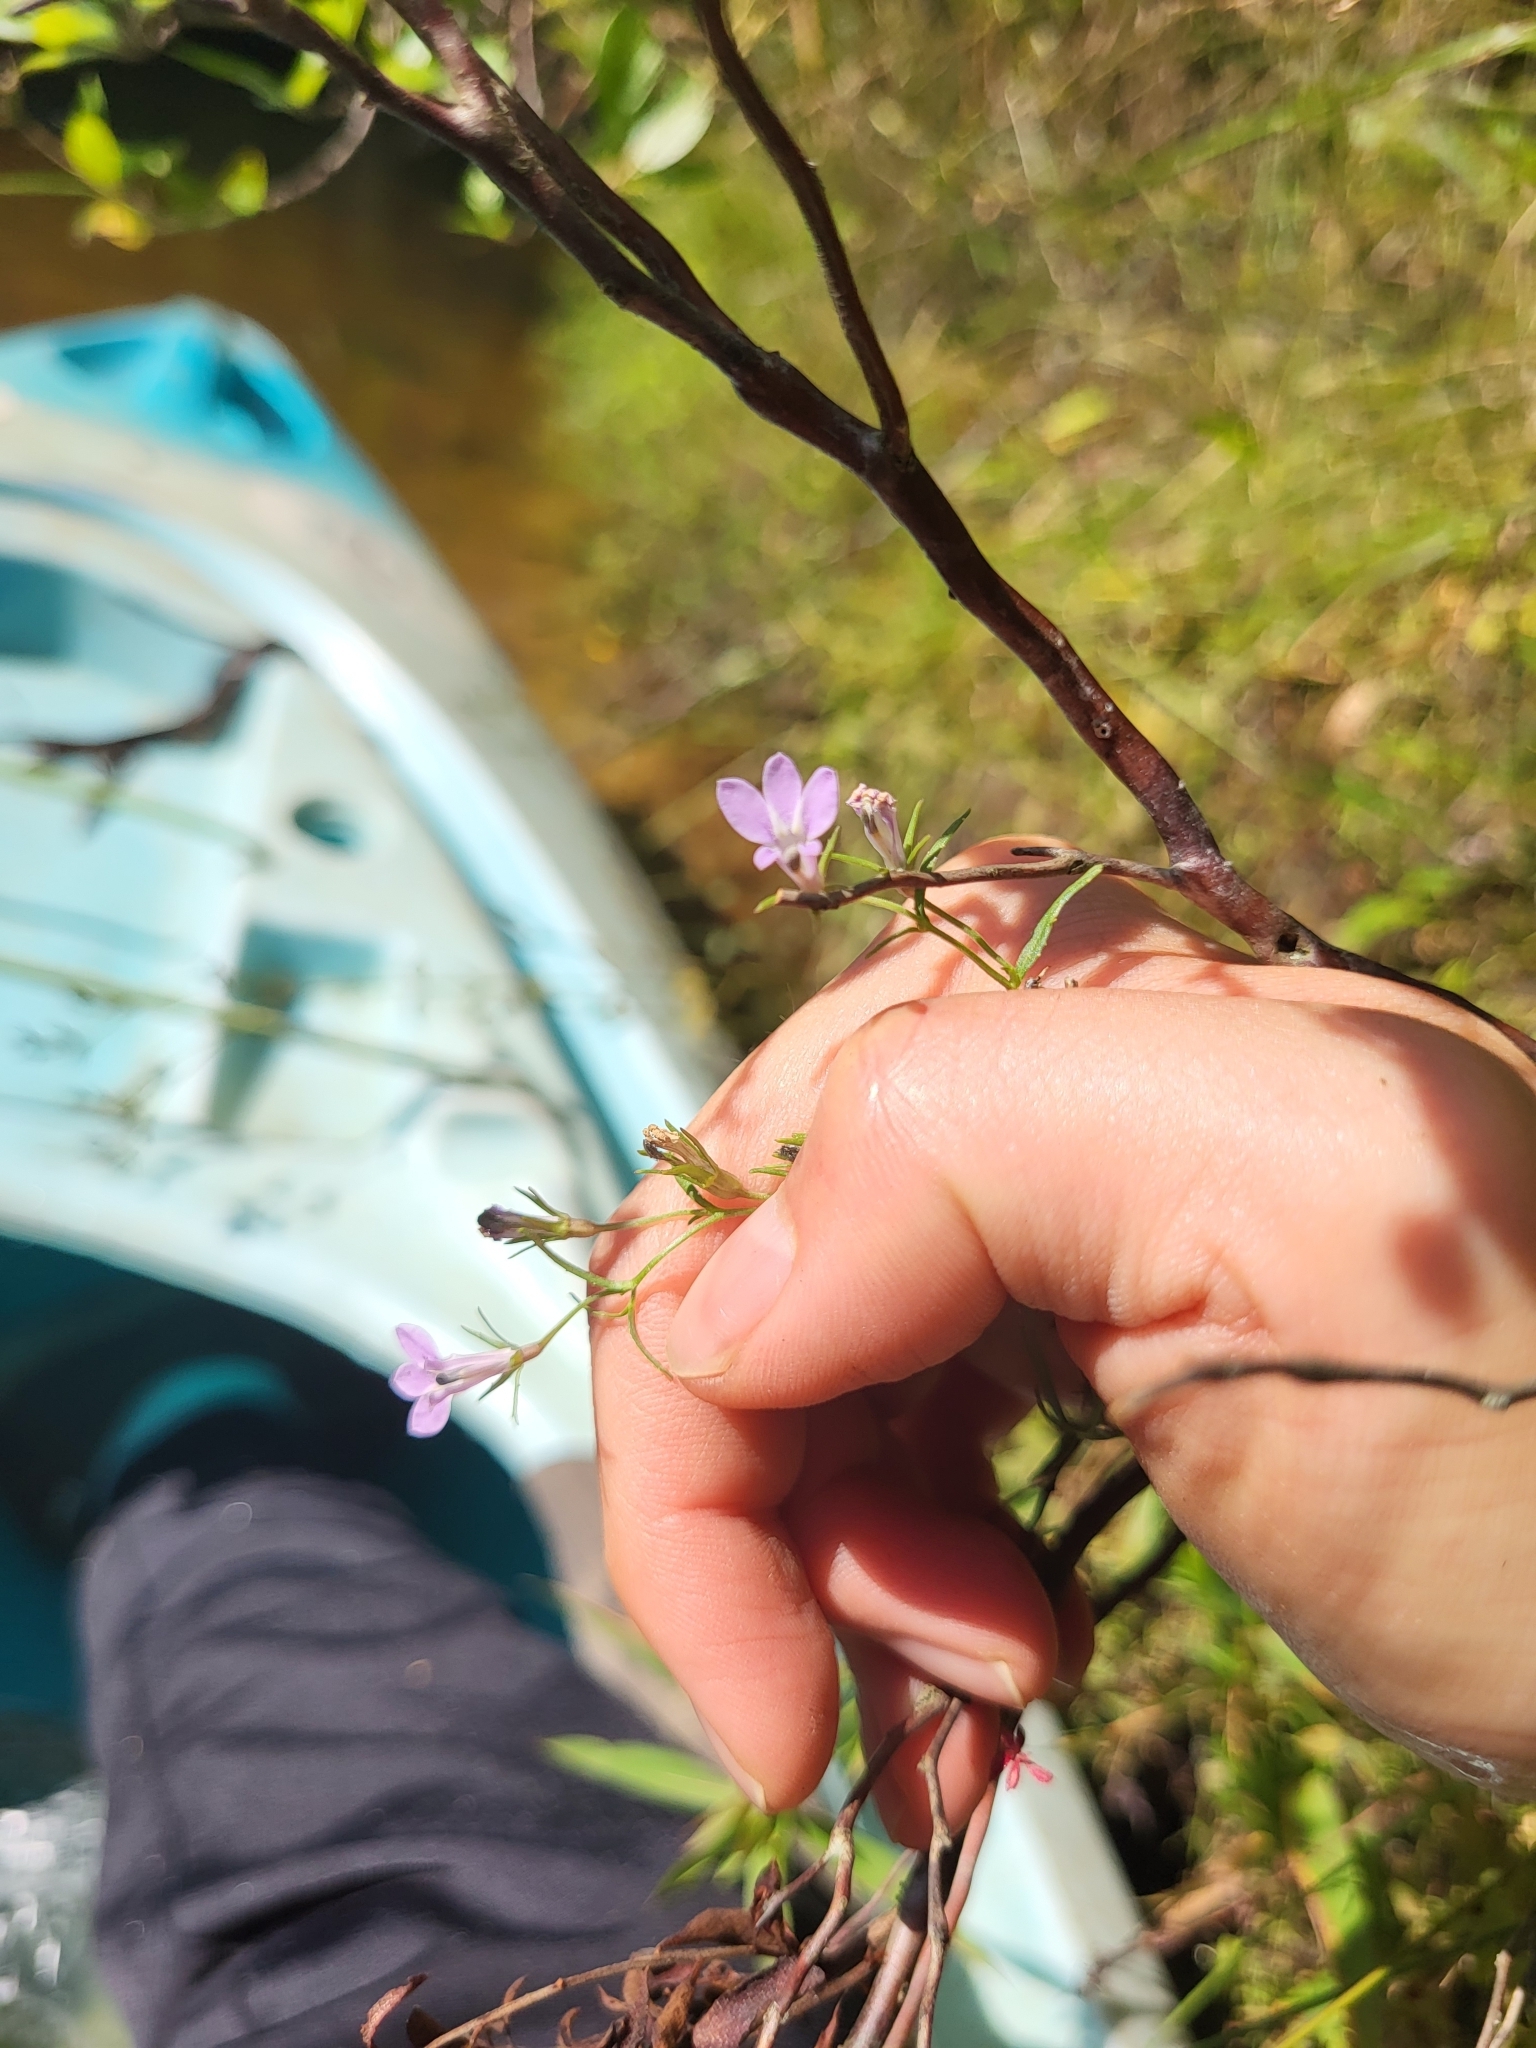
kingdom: Plantae
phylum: Tracheophyta
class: Magnoliopsida
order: Asterales
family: Campanulaceae
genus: Lobelia
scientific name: Lobelia canbyi
